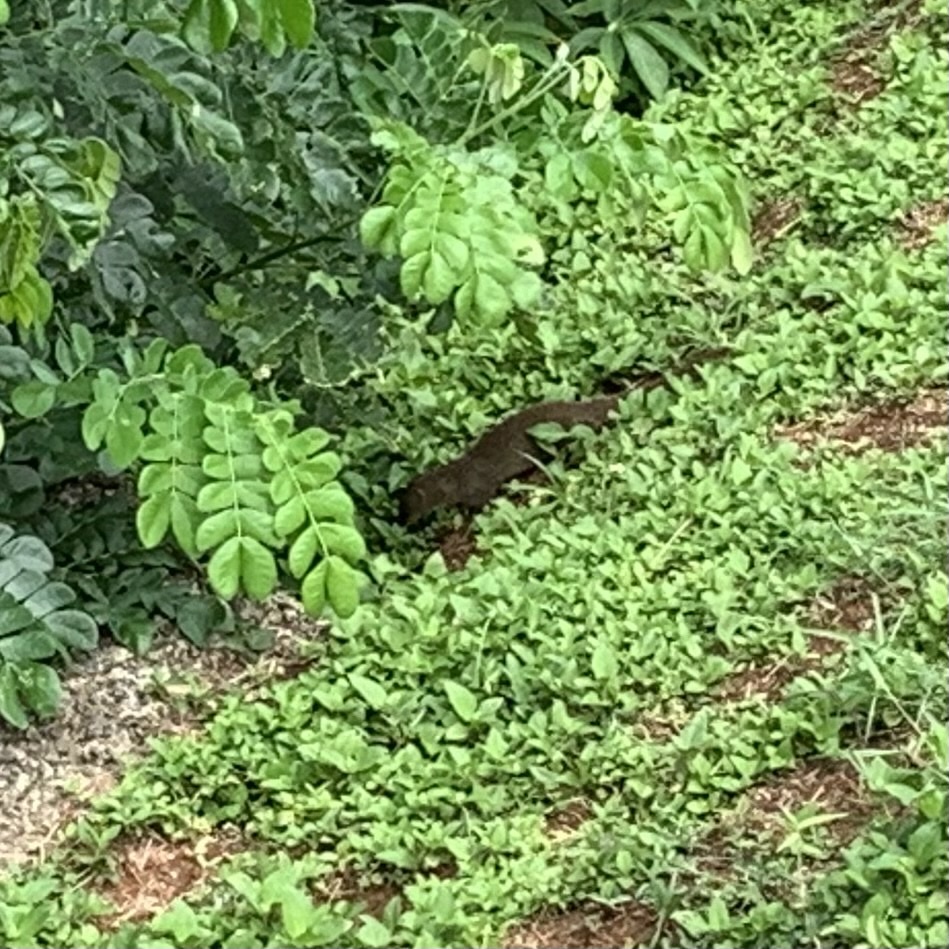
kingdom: Animalia
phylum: Chordata
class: Mammalia
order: Carnivora
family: Herpestidae
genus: Herpestes
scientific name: Herpestes javanicus
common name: Small asian mongoose
